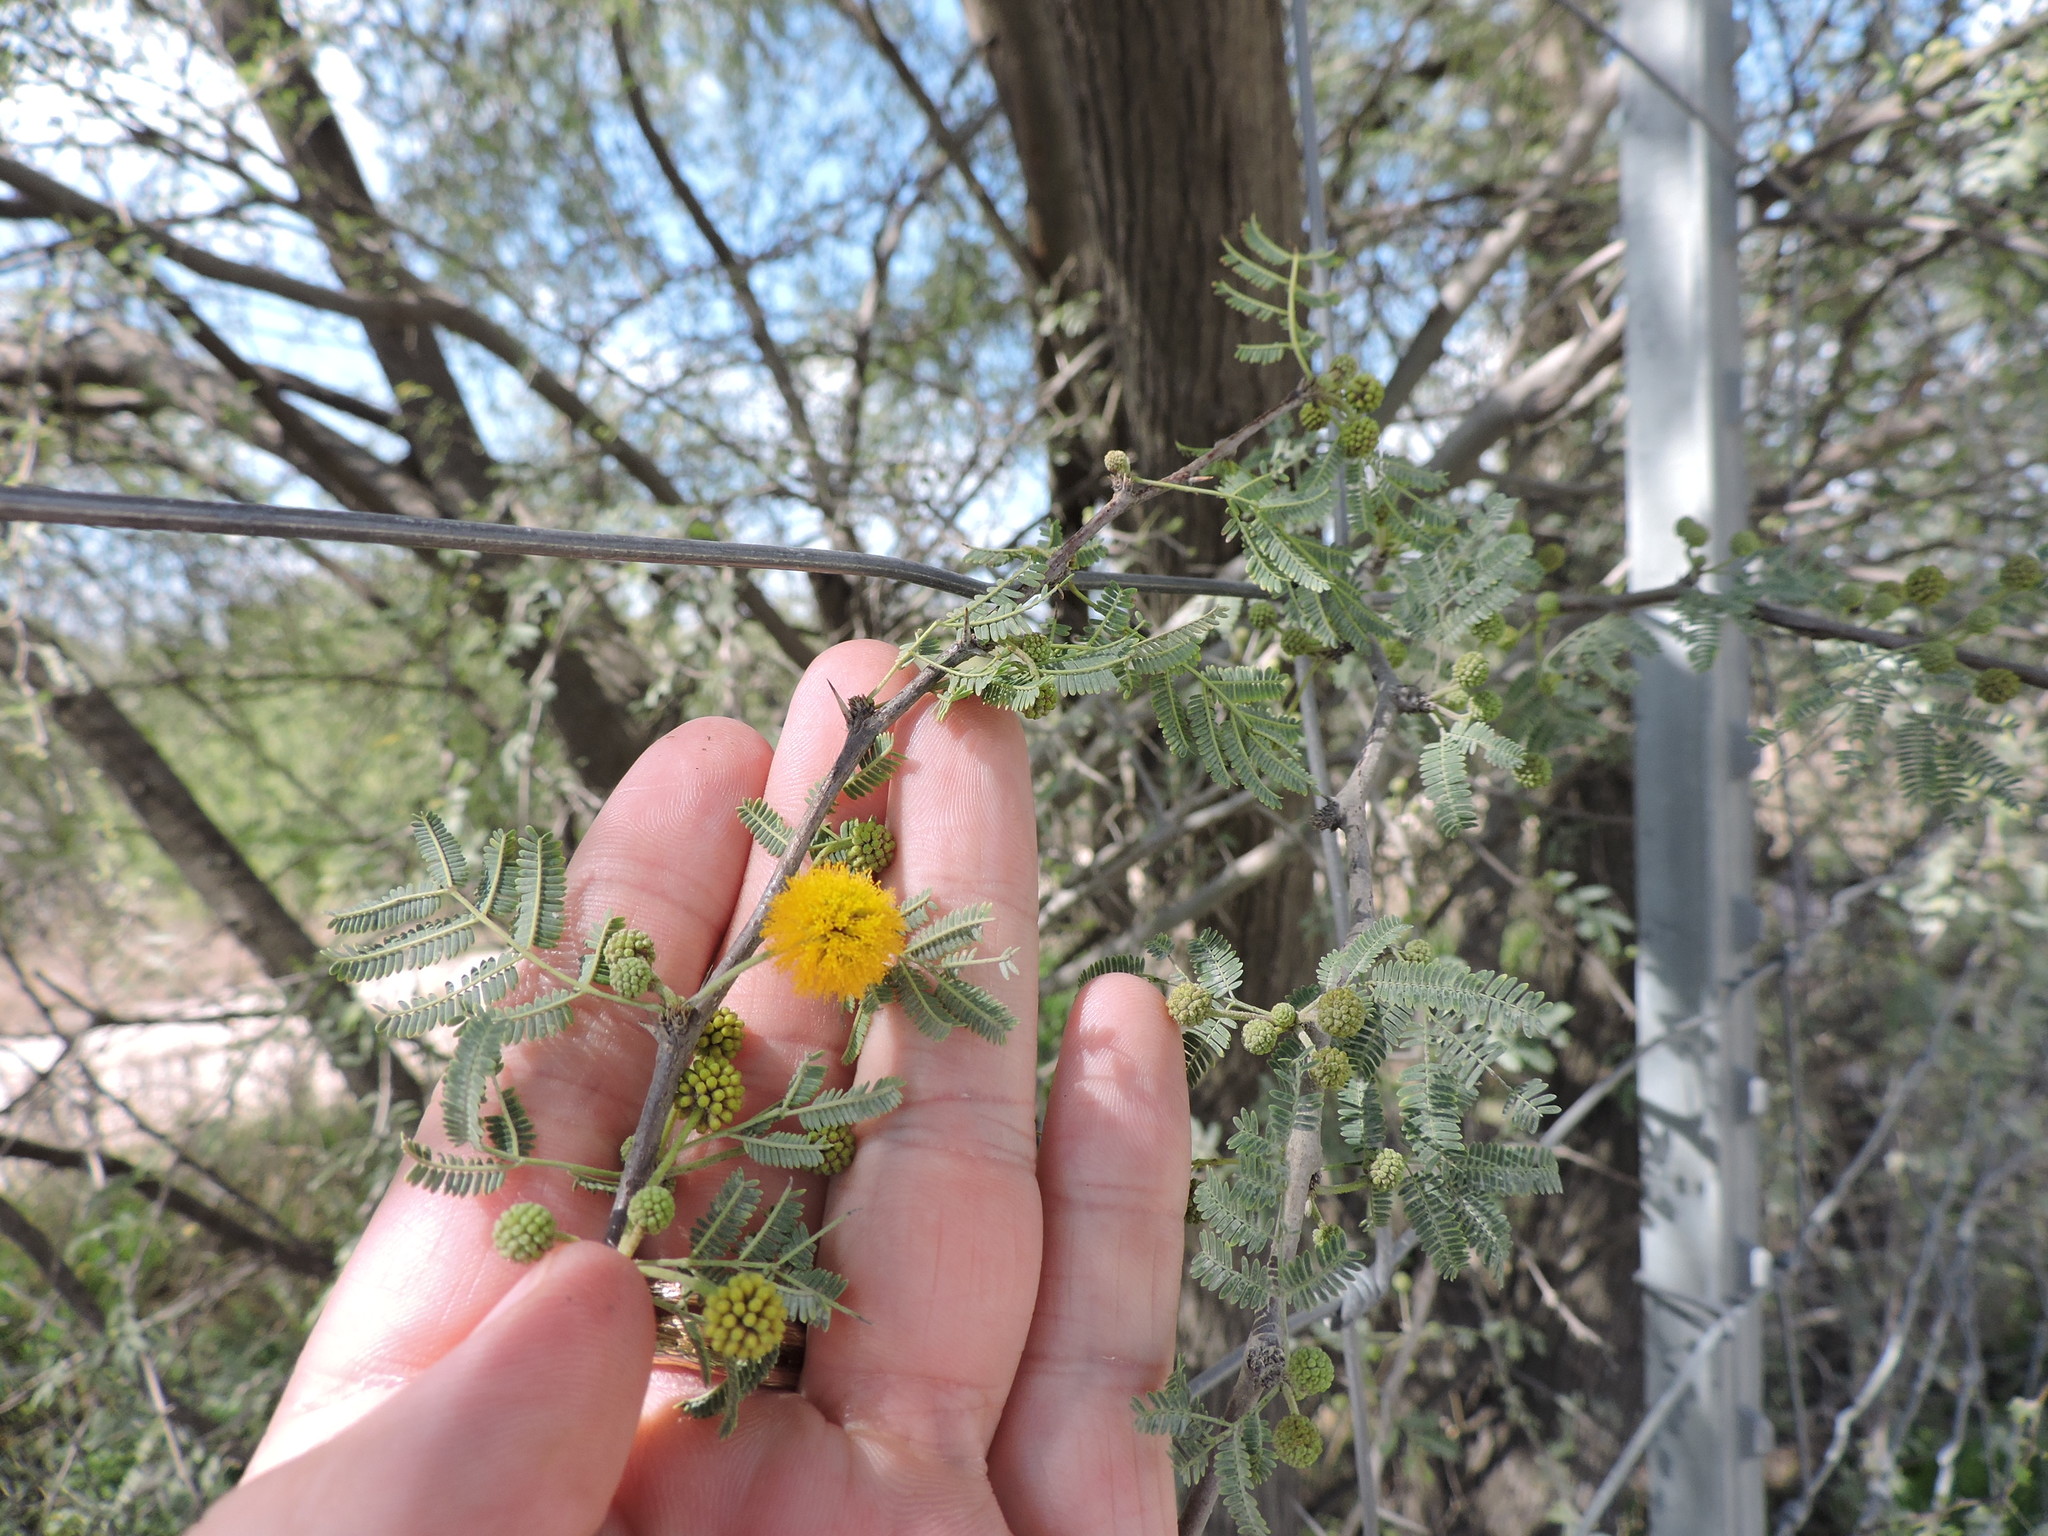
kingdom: Plantae
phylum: Tracheophyta
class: Magnoliopsida
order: Fabales
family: Fabaceae
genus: Vachellia
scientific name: Vachellia farnesiana
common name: Sweet acacia
